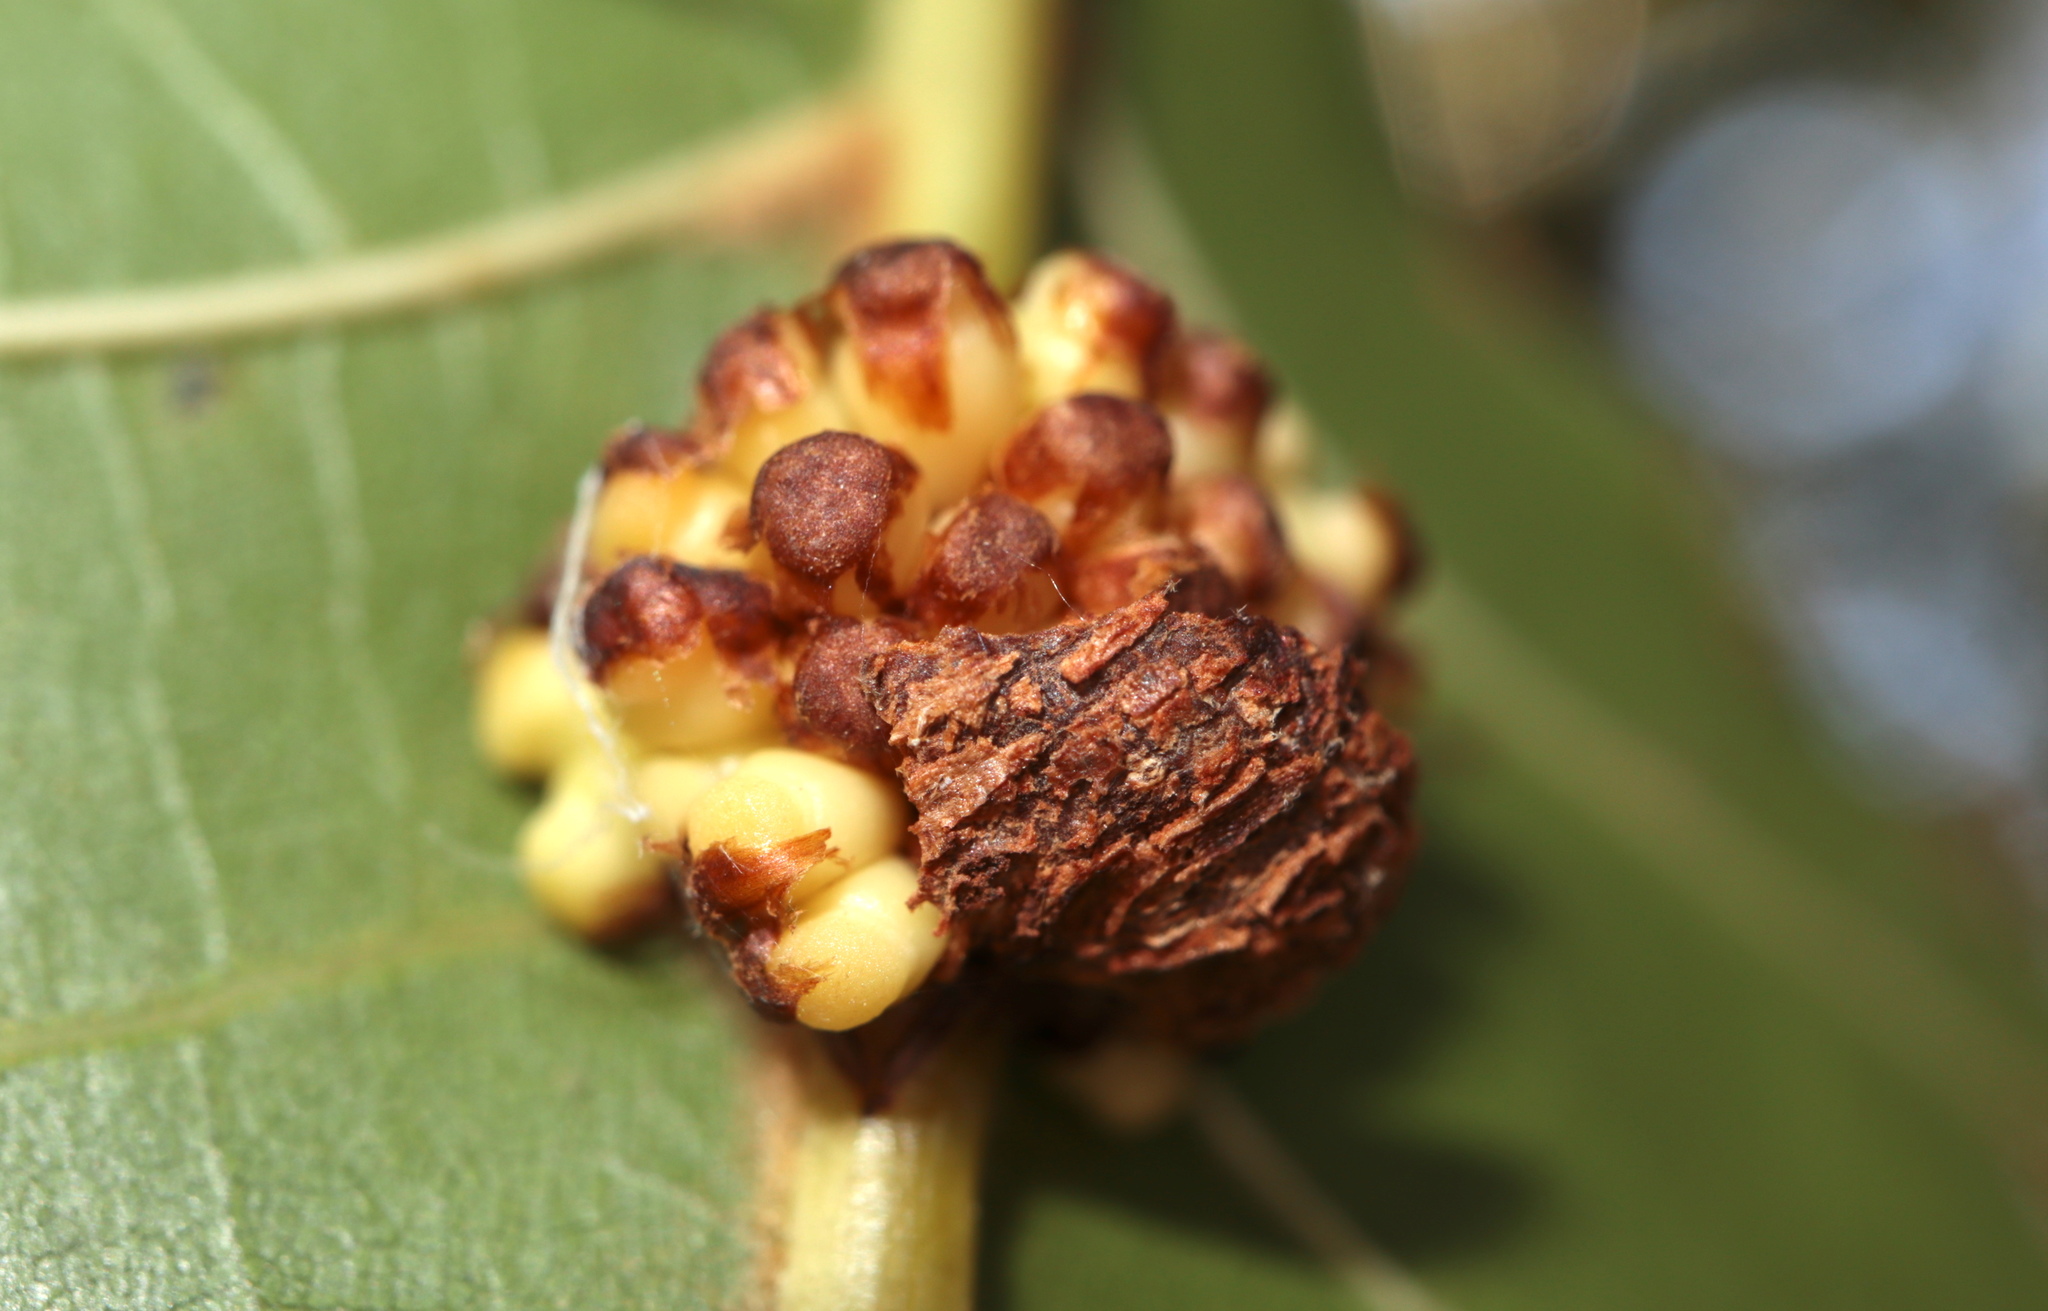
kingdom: Animalia
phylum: Arthropoda
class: Insecta
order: Hymenoptera
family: Cynipidae
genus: Kokkocynips
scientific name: Kokkocynips decidua
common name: Oak wheat gall
